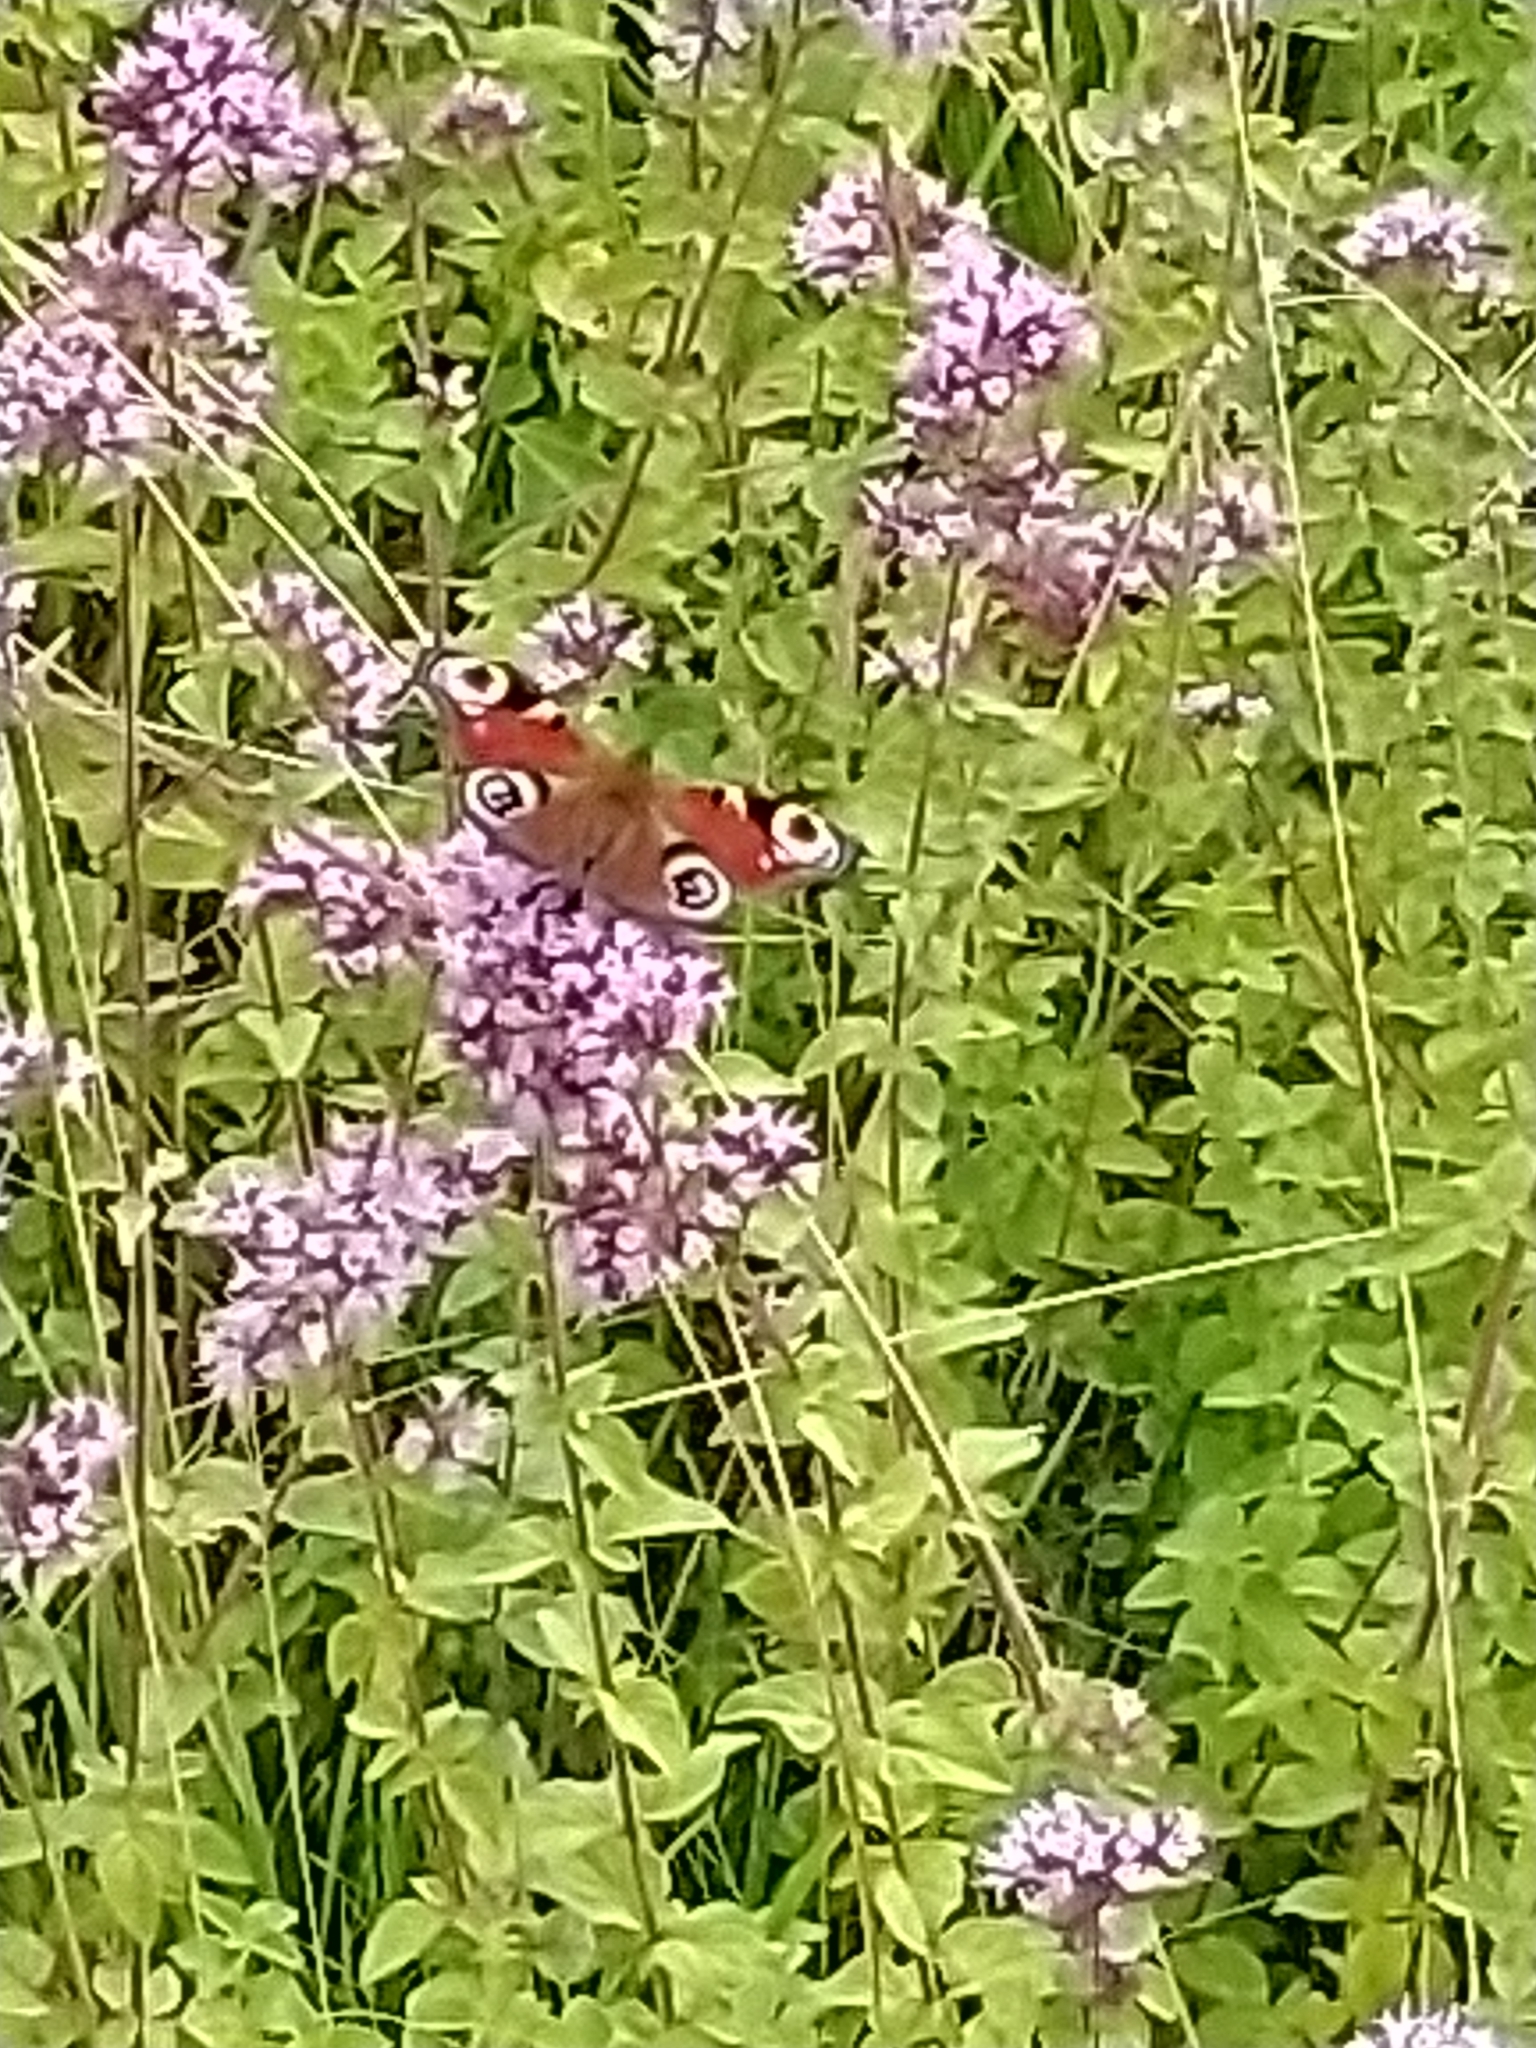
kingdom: Animalia
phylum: Arthropoda
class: Insecta
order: Lepidoptera
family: Nymphalidae
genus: Aglais
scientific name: Aglais io
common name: Peacock
